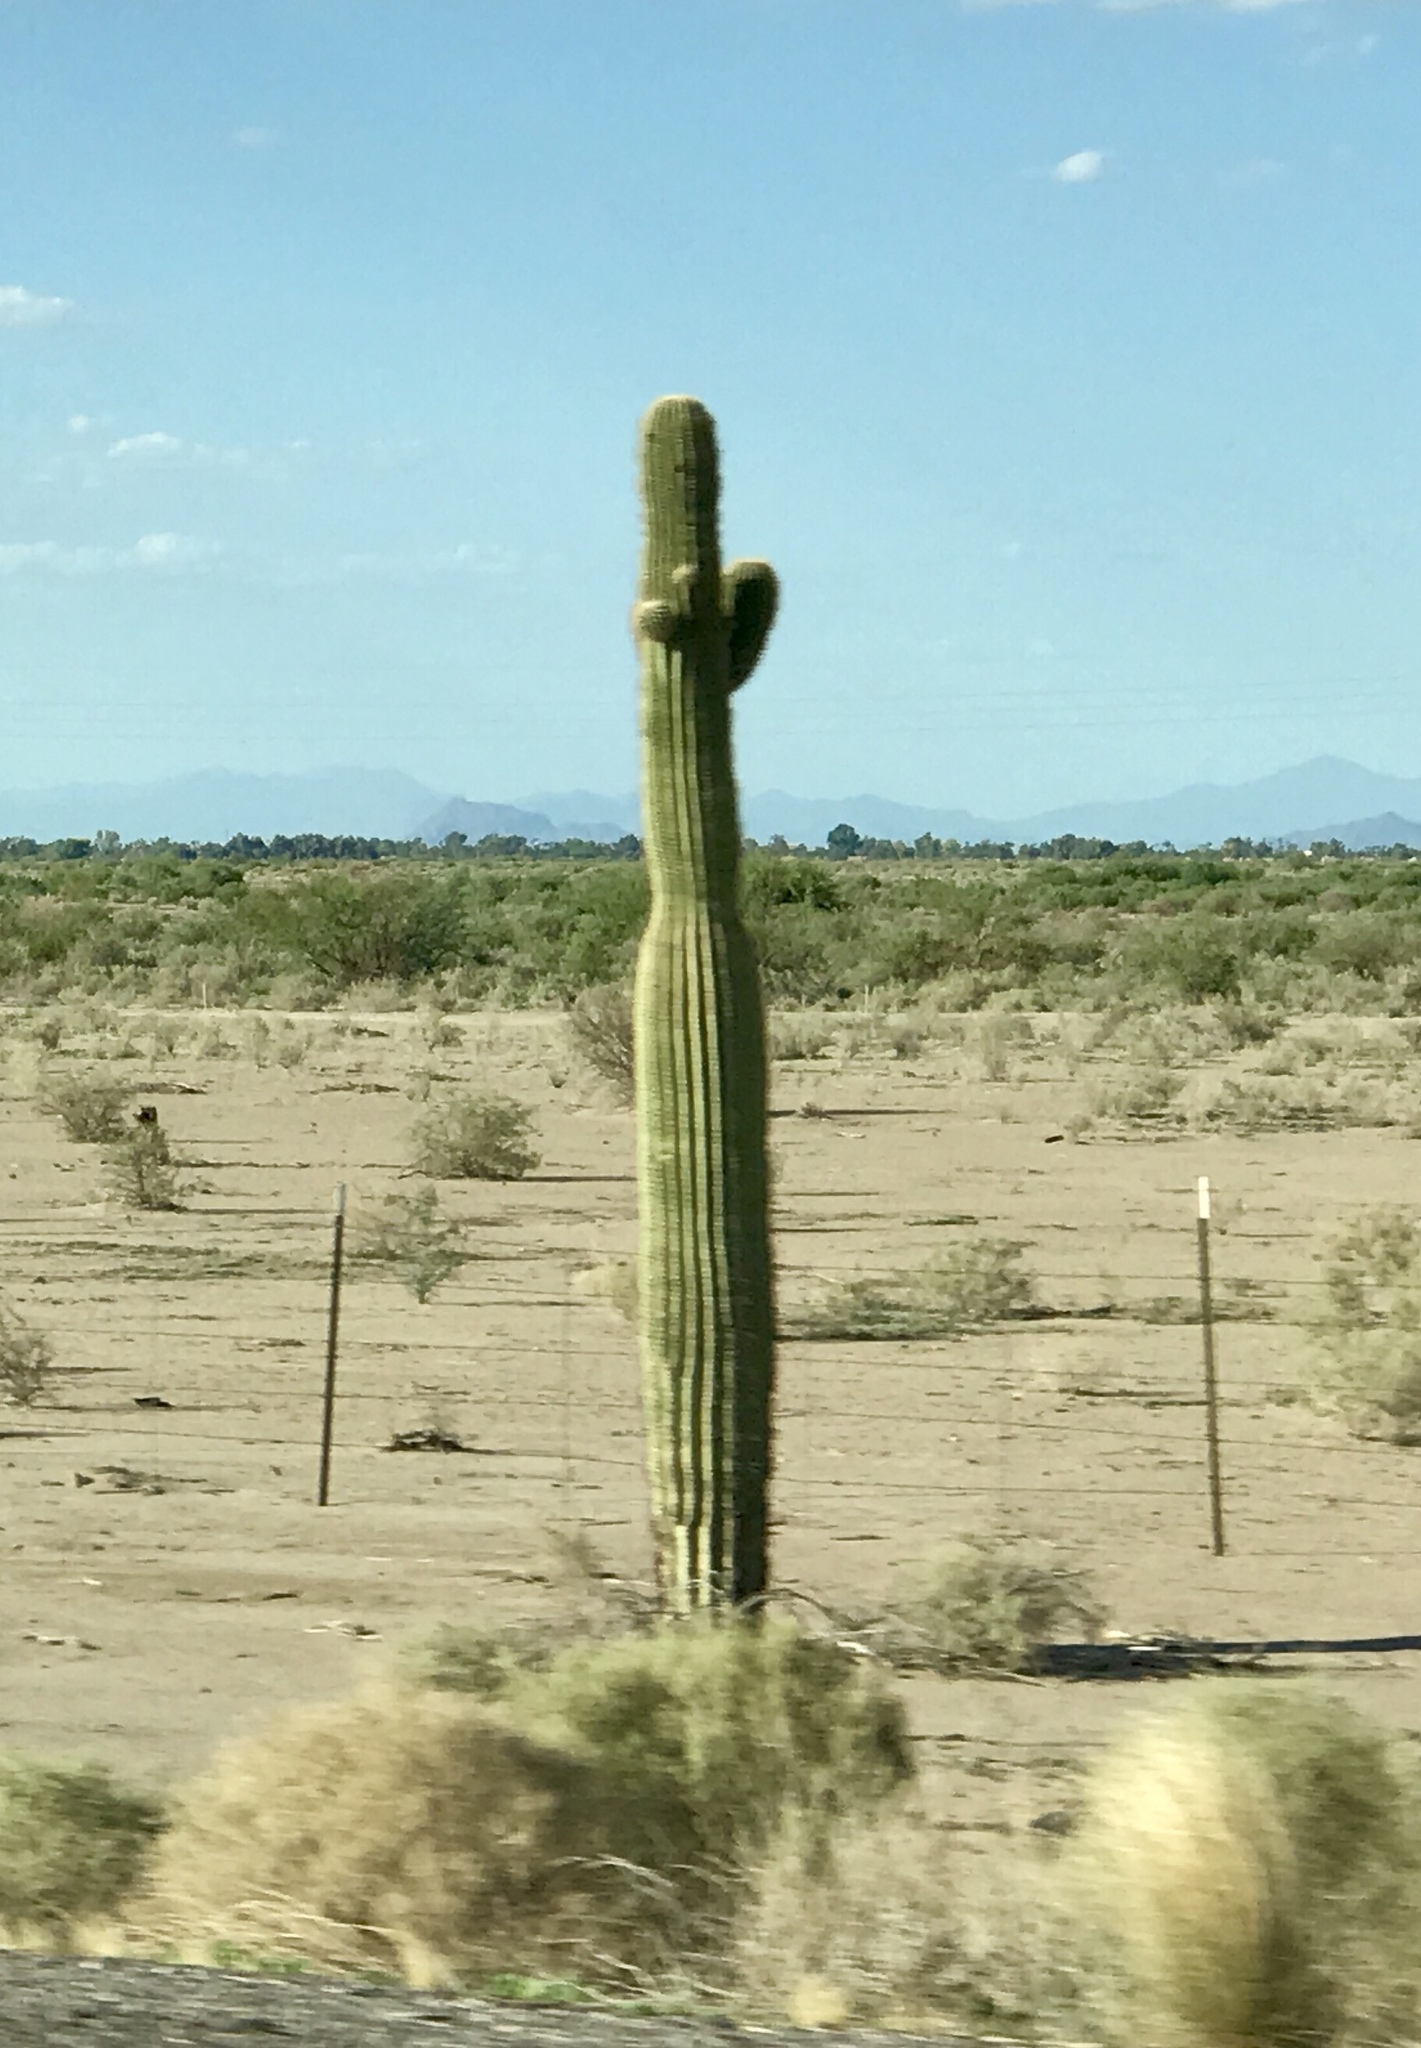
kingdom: Plantae
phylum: Tracheophyta
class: Magnoliopsida
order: Caryophyllales
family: Cactaceae
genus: Carnegiea
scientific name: Carnegiea gigantea
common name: Saguaro
